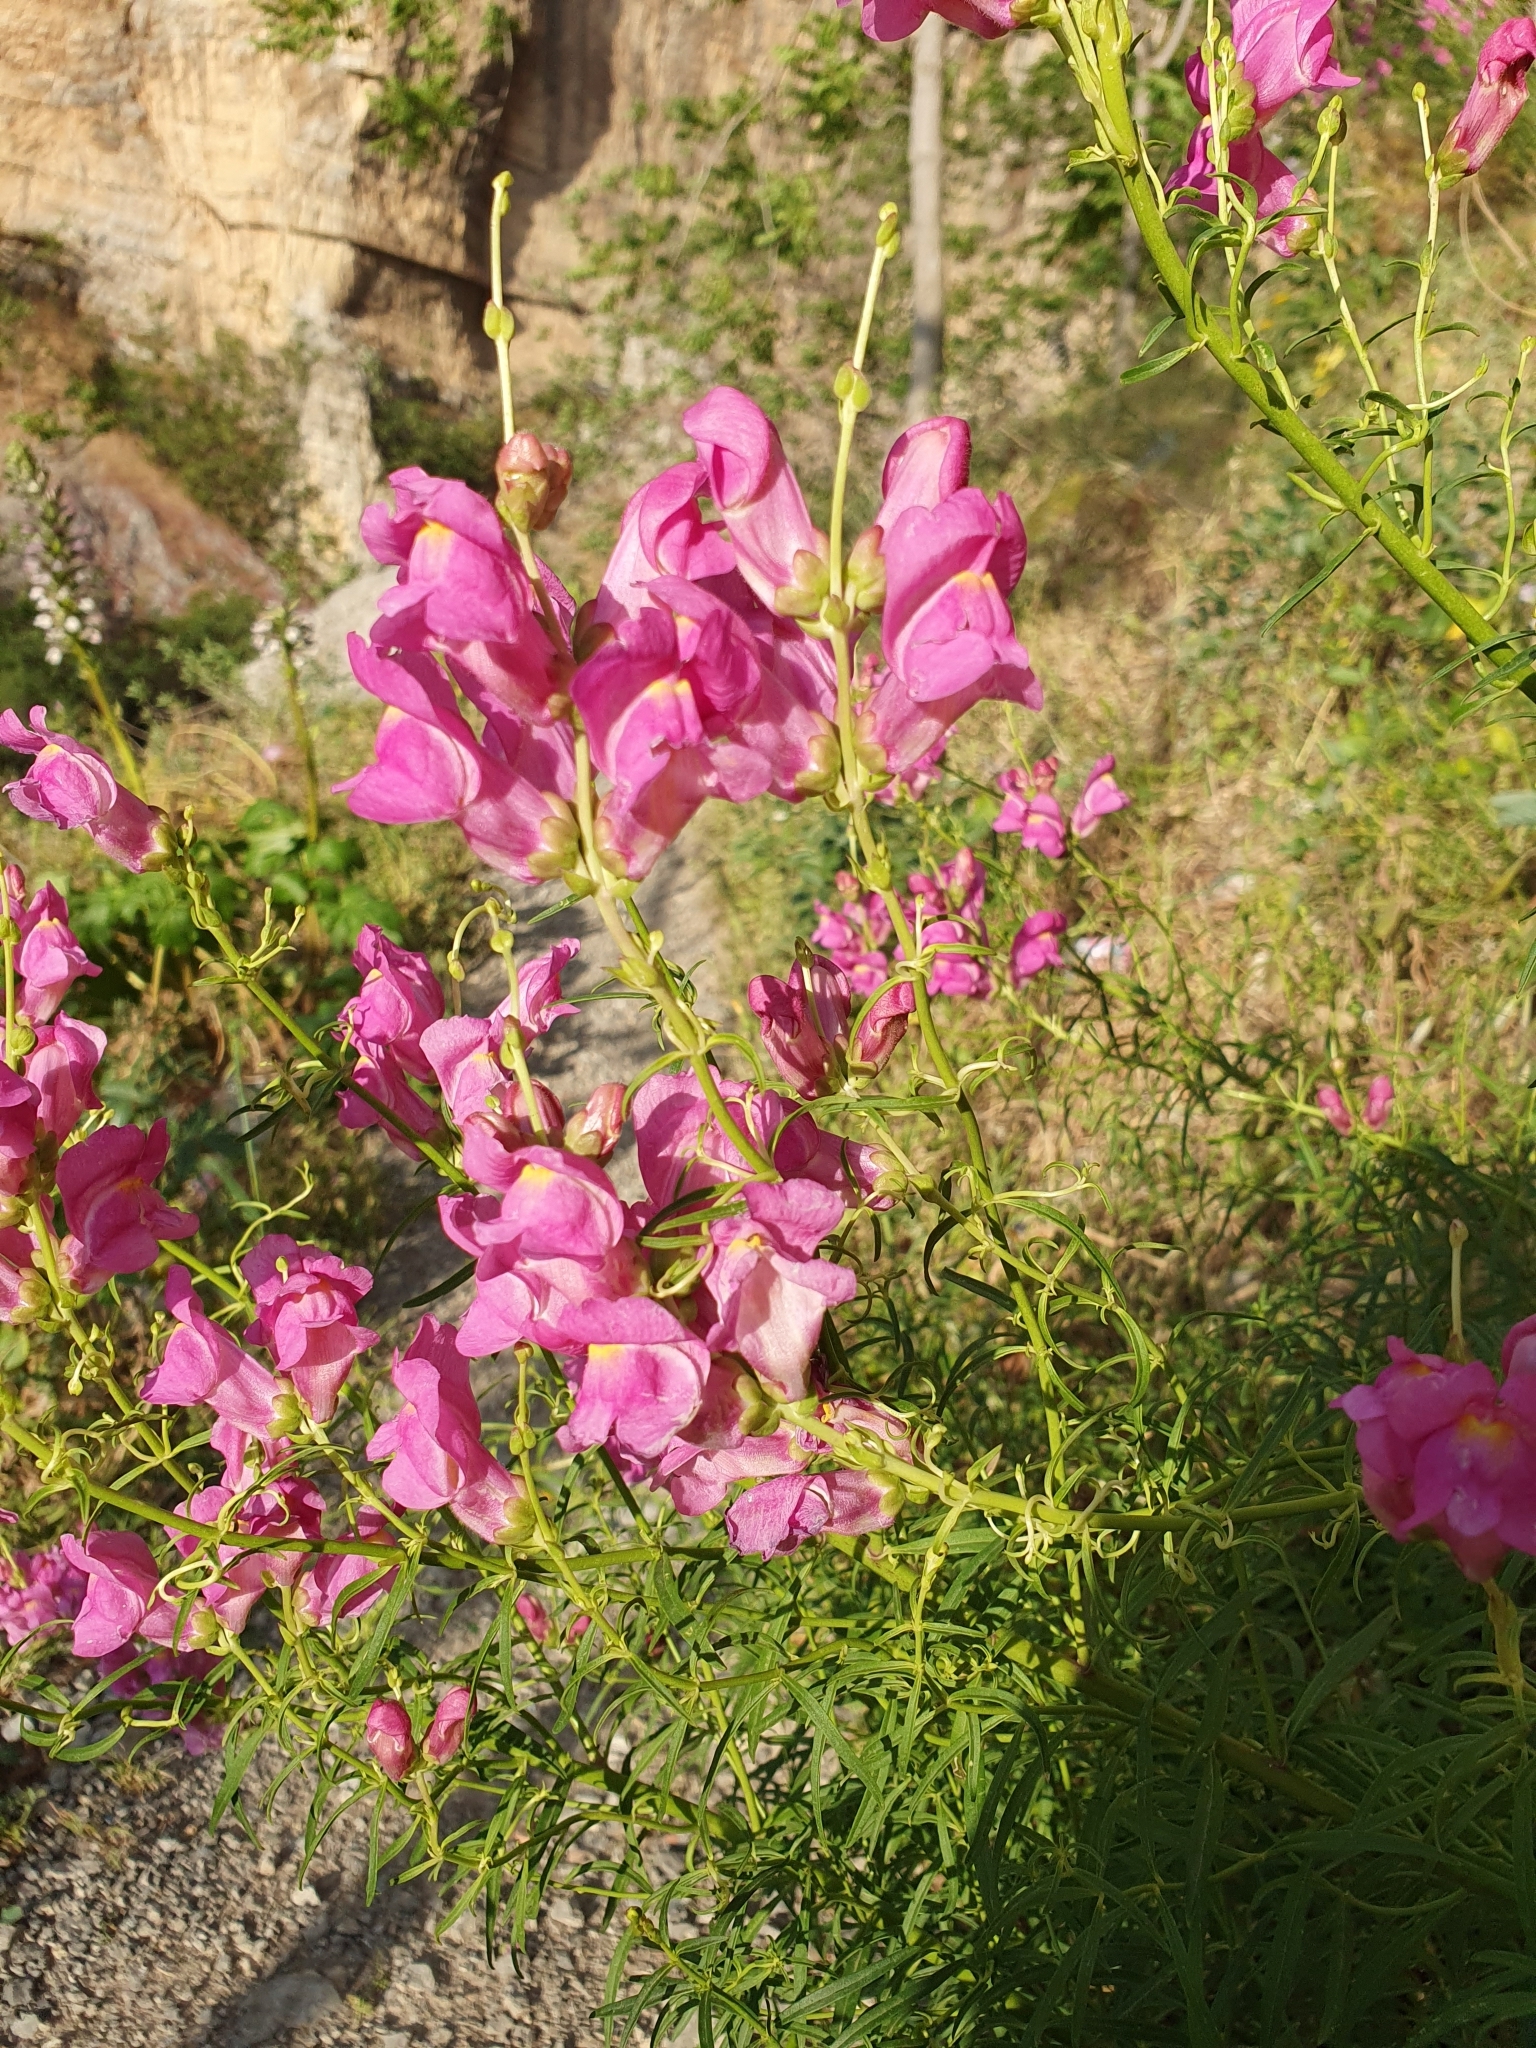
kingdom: Plantae
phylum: Tracheophyta
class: Magnoliopsida
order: Lamiales
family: Plantaginaceae
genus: Antirrhinum
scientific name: Antirrhinum tortuosum
